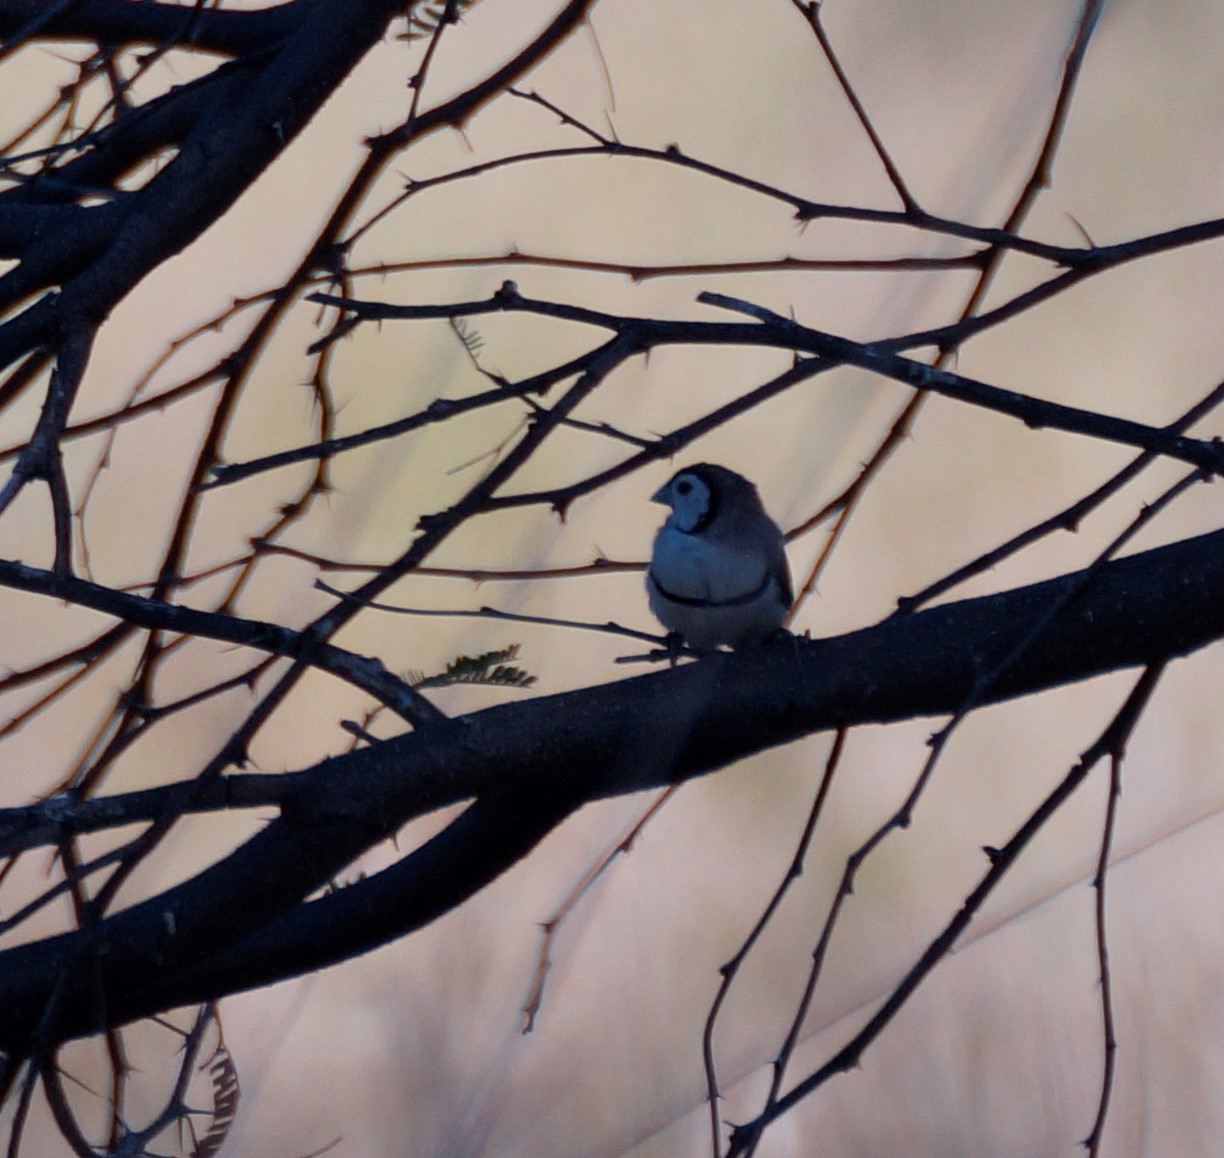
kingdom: Animalia
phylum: Chordata
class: Aves
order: Passeriformes
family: Estrildidae
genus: Taeniopygia
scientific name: Taeniopygia bichenovii
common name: Double-barred finch
